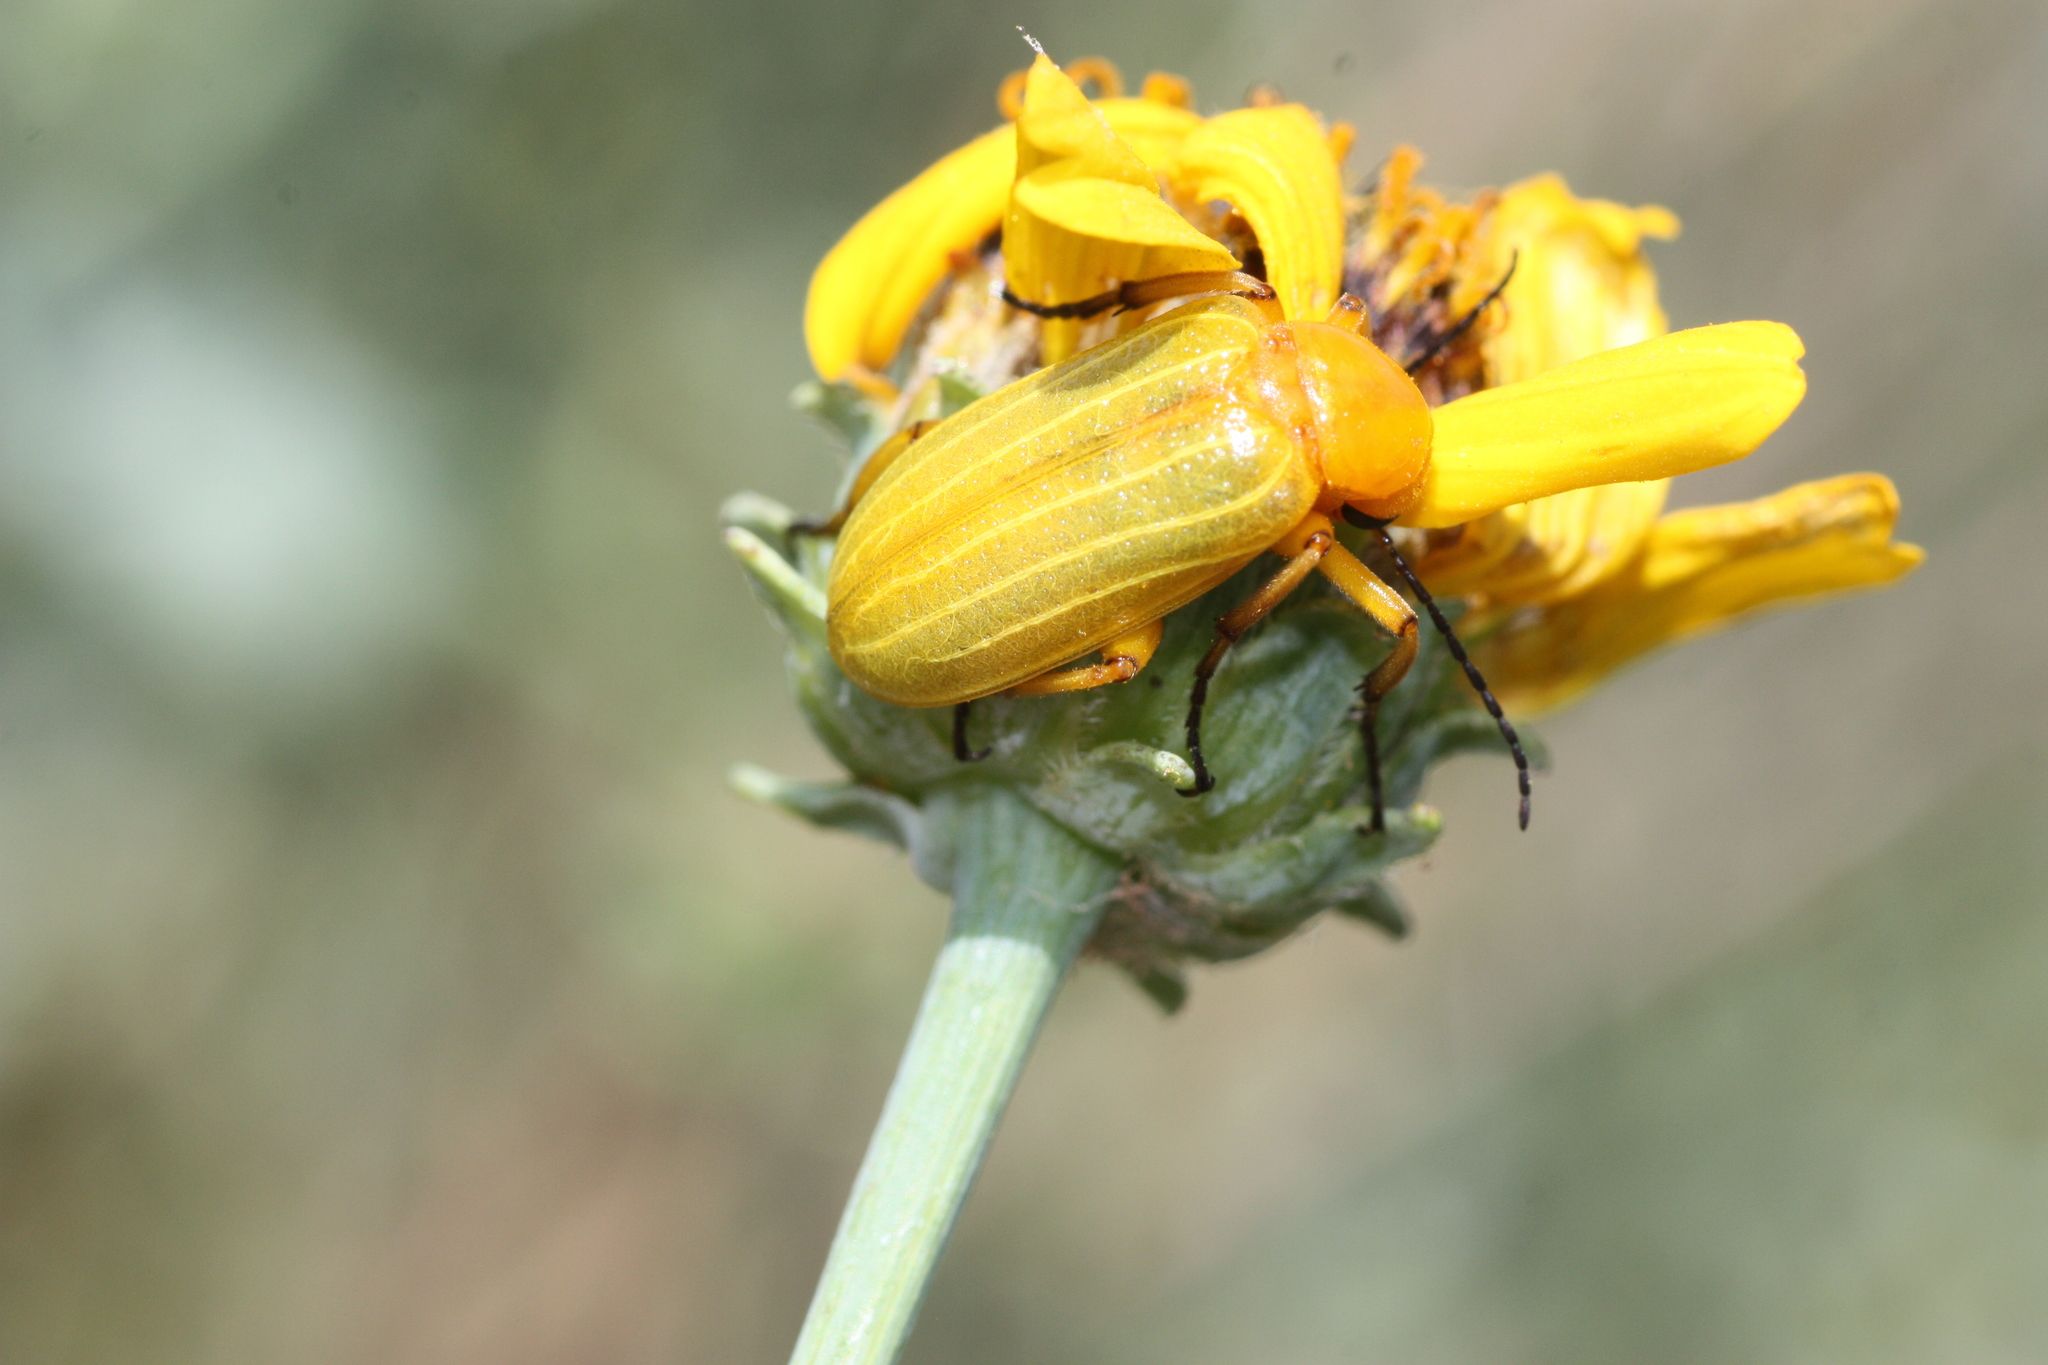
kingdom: Animalia
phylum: Arthropoda
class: Insecta
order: Coleoptera
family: Meloidae
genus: Zonitis
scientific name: Zonitis dunniana
